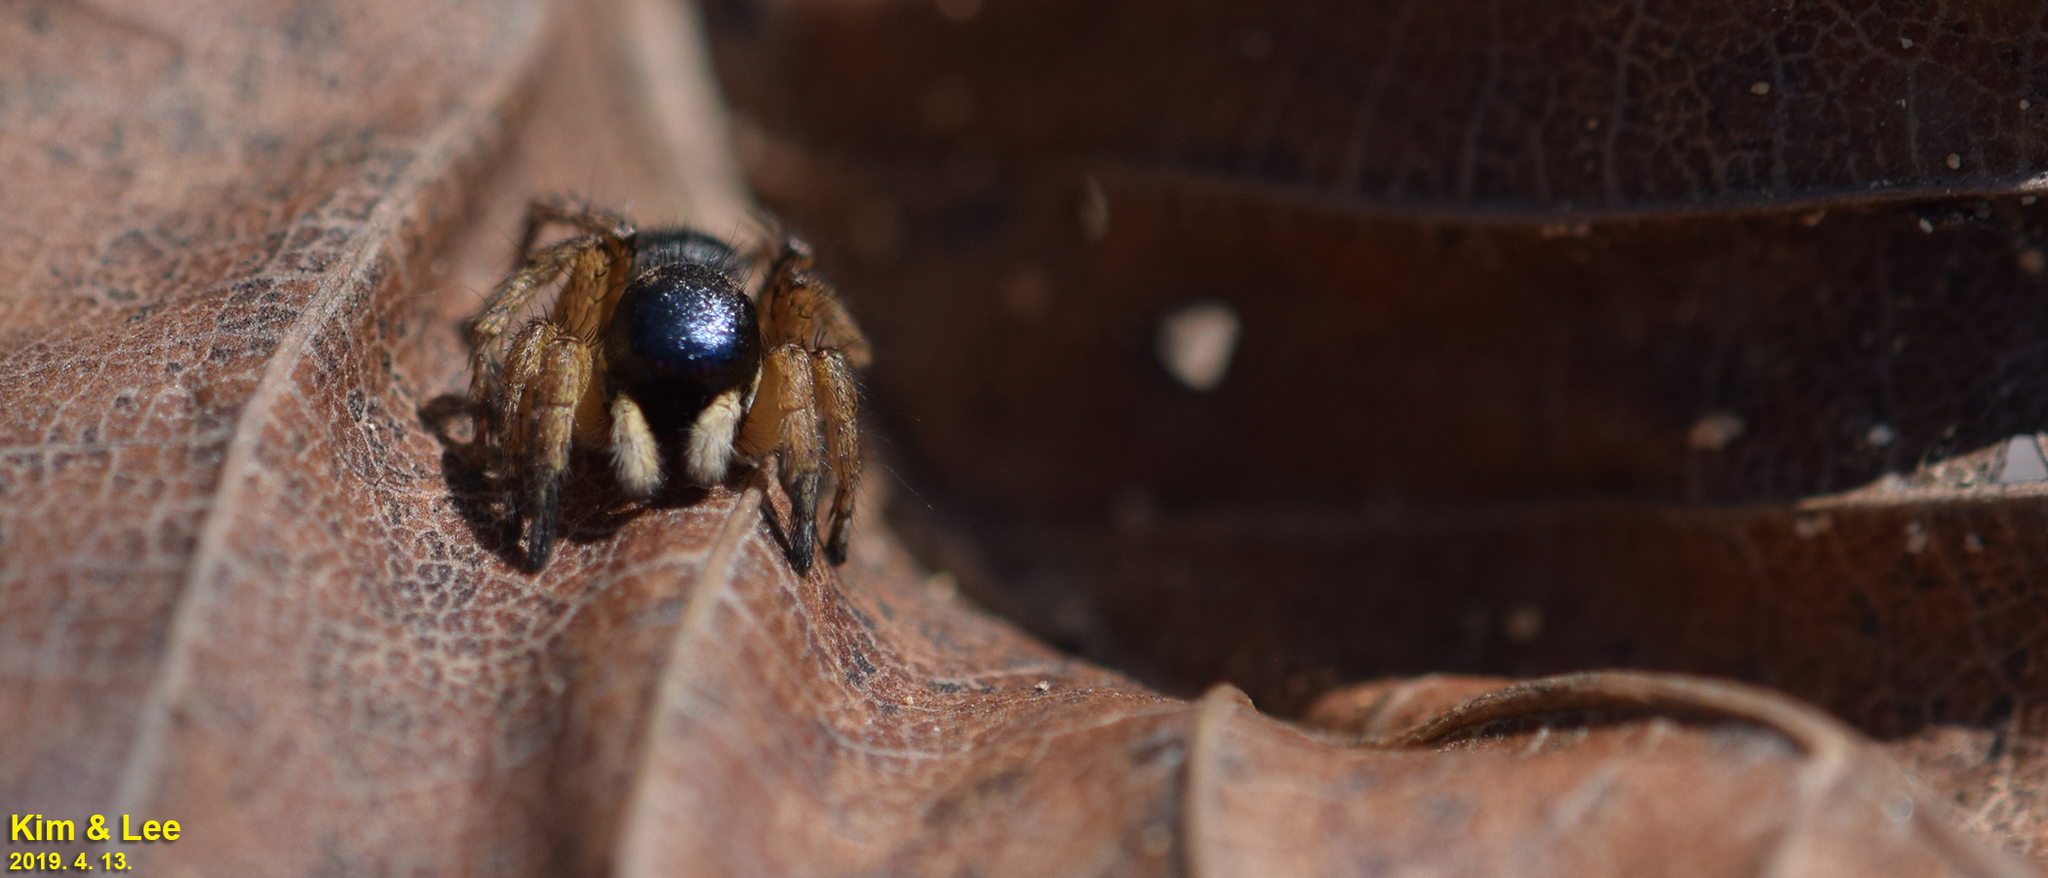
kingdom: Animalia
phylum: Arthropoda
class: Arachnida
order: Araneae
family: Salticidae
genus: Asianellus
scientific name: Asianellus festivus
